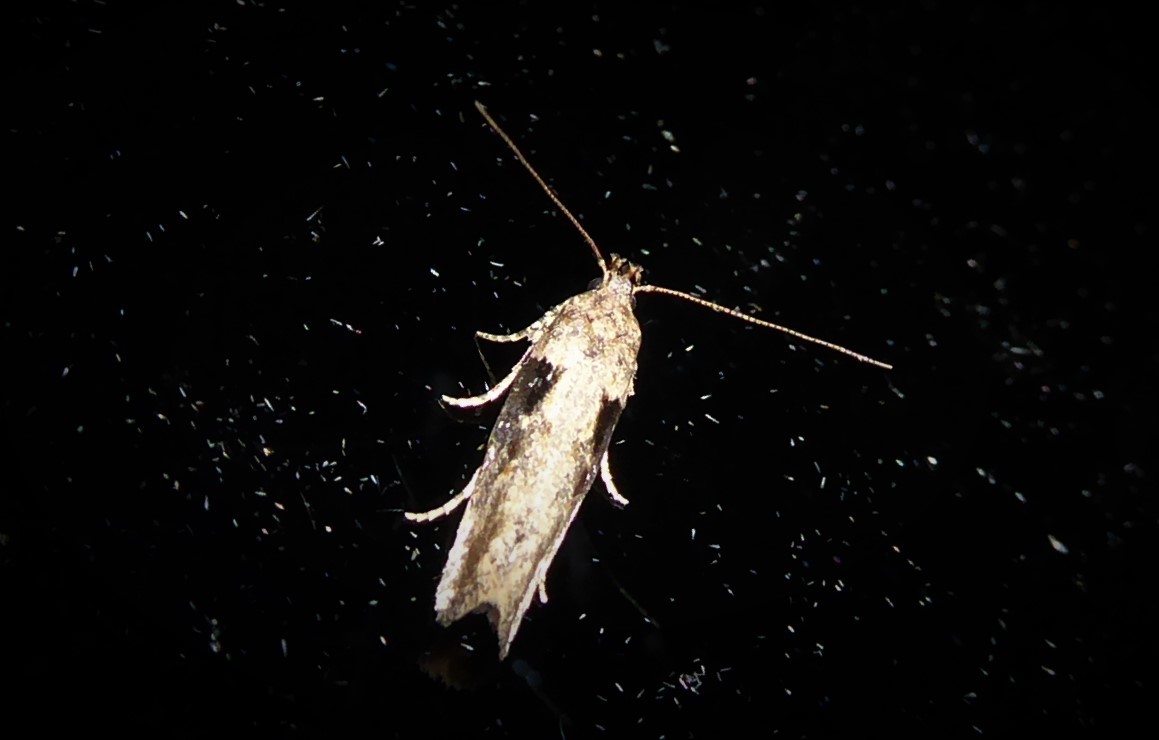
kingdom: Animalia
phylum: Arthropoda
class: Insecta
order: Lepidoptera
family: Gelechiidae
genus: Symmetrischema
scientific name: Symmetrischema tangolias
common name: Moth
